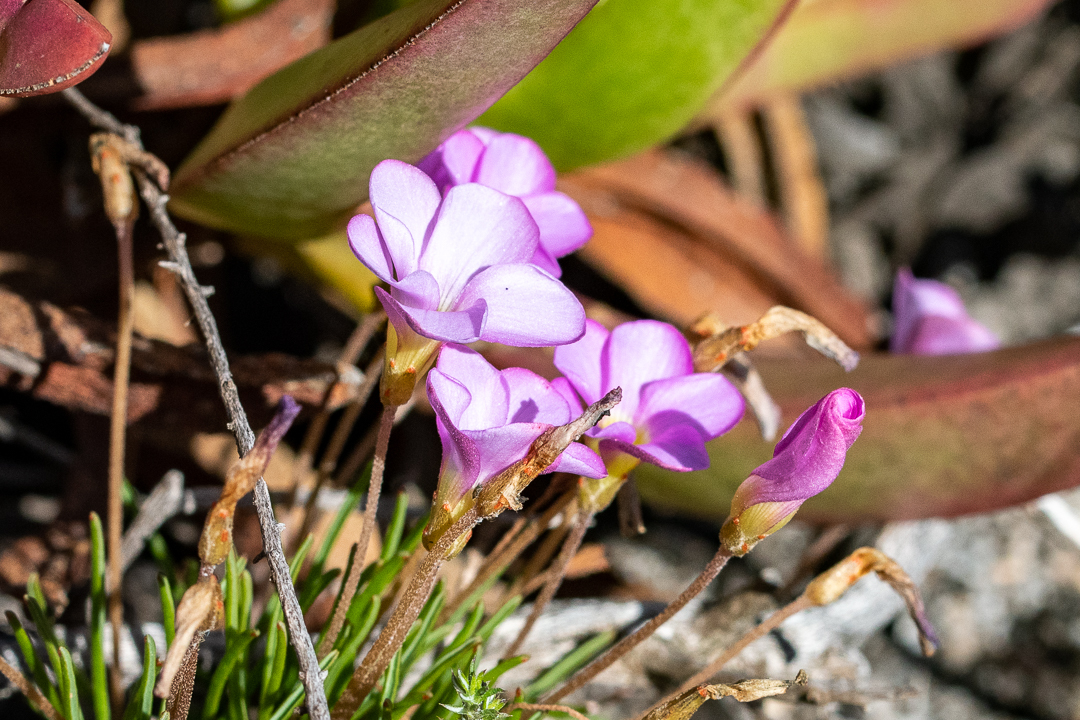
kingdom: Plantae
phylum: Tracheophyta
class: Magnoliopsida
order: Oxalidales
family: Oxalidaceae
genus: Oxalis
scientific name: Oxalis polyphylla
